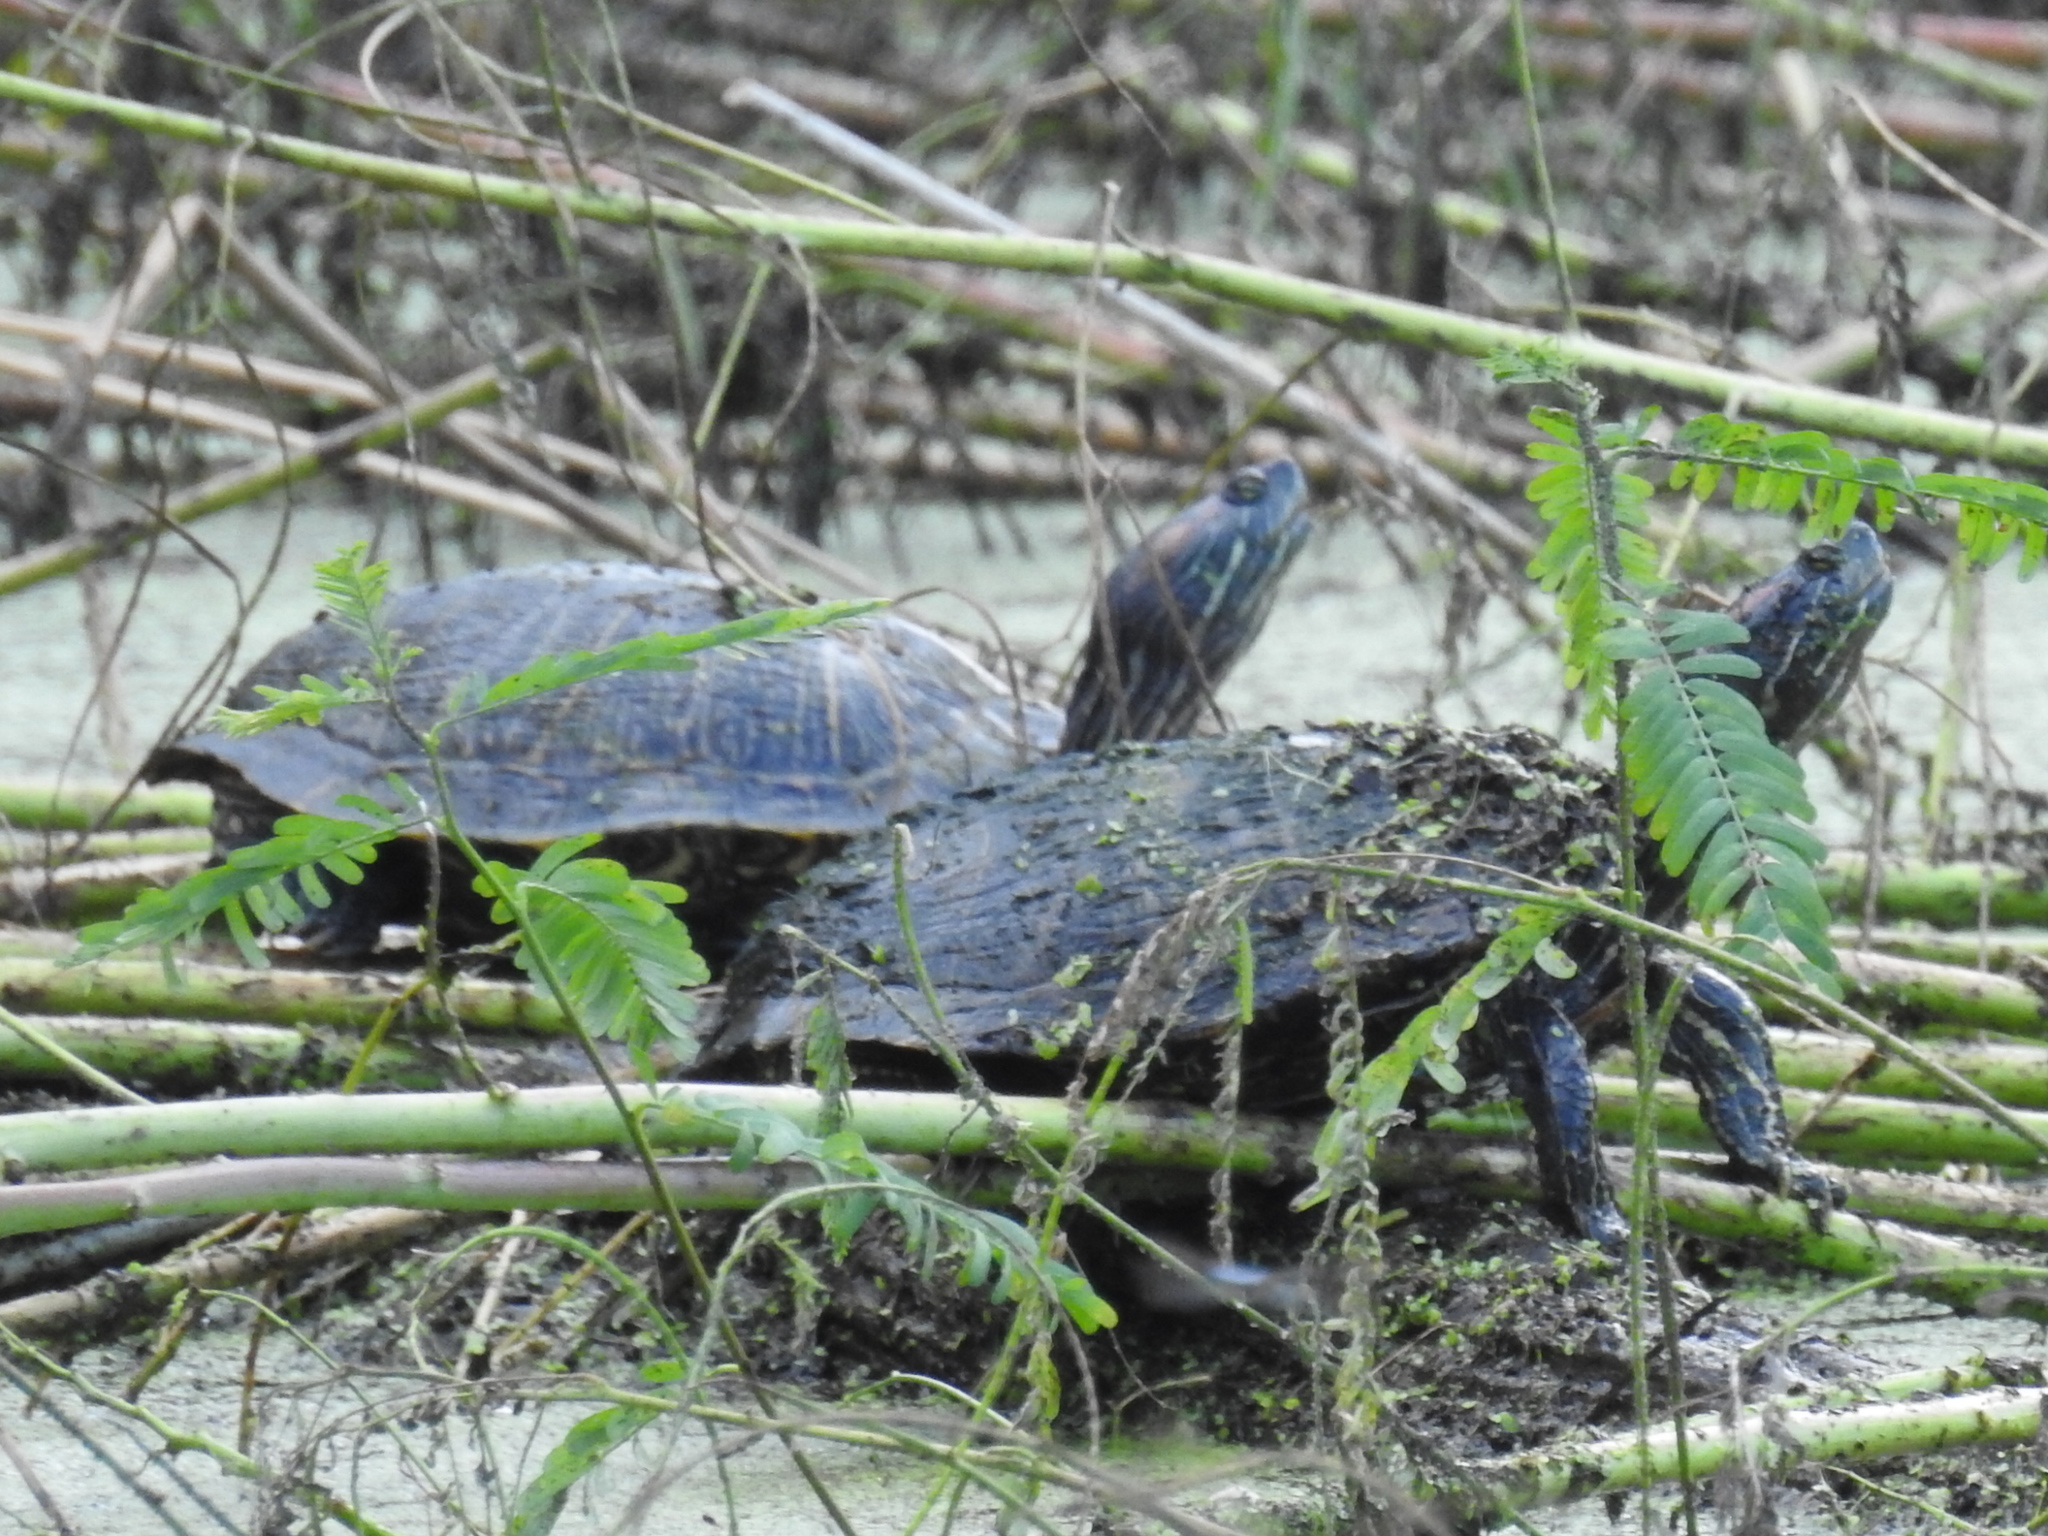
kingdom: Animalia
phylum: Chordata
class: Testudines
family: Emydidae
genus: Trachemys
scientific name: Trachemys scripta
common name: Slider
